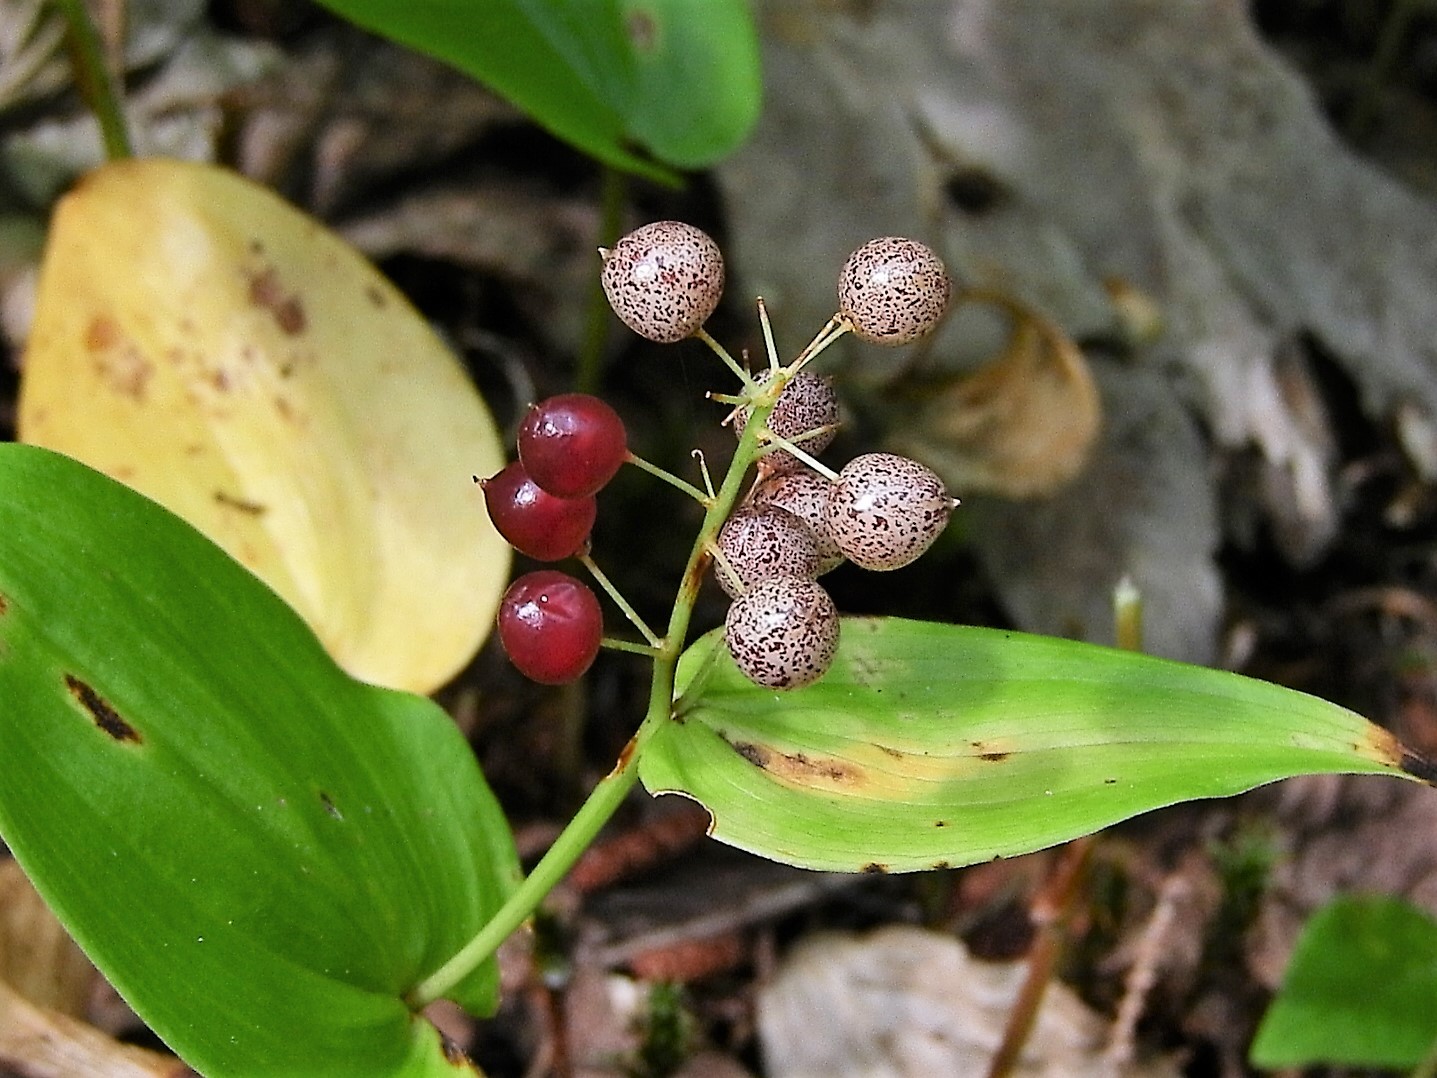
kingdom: Plantae
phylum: Tracheophyta
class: Liliopsida
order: Asparagales
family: Asparagaceae
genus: Maianthemum
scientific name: Maianthemum canadense
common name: False lily-of-the-valley
